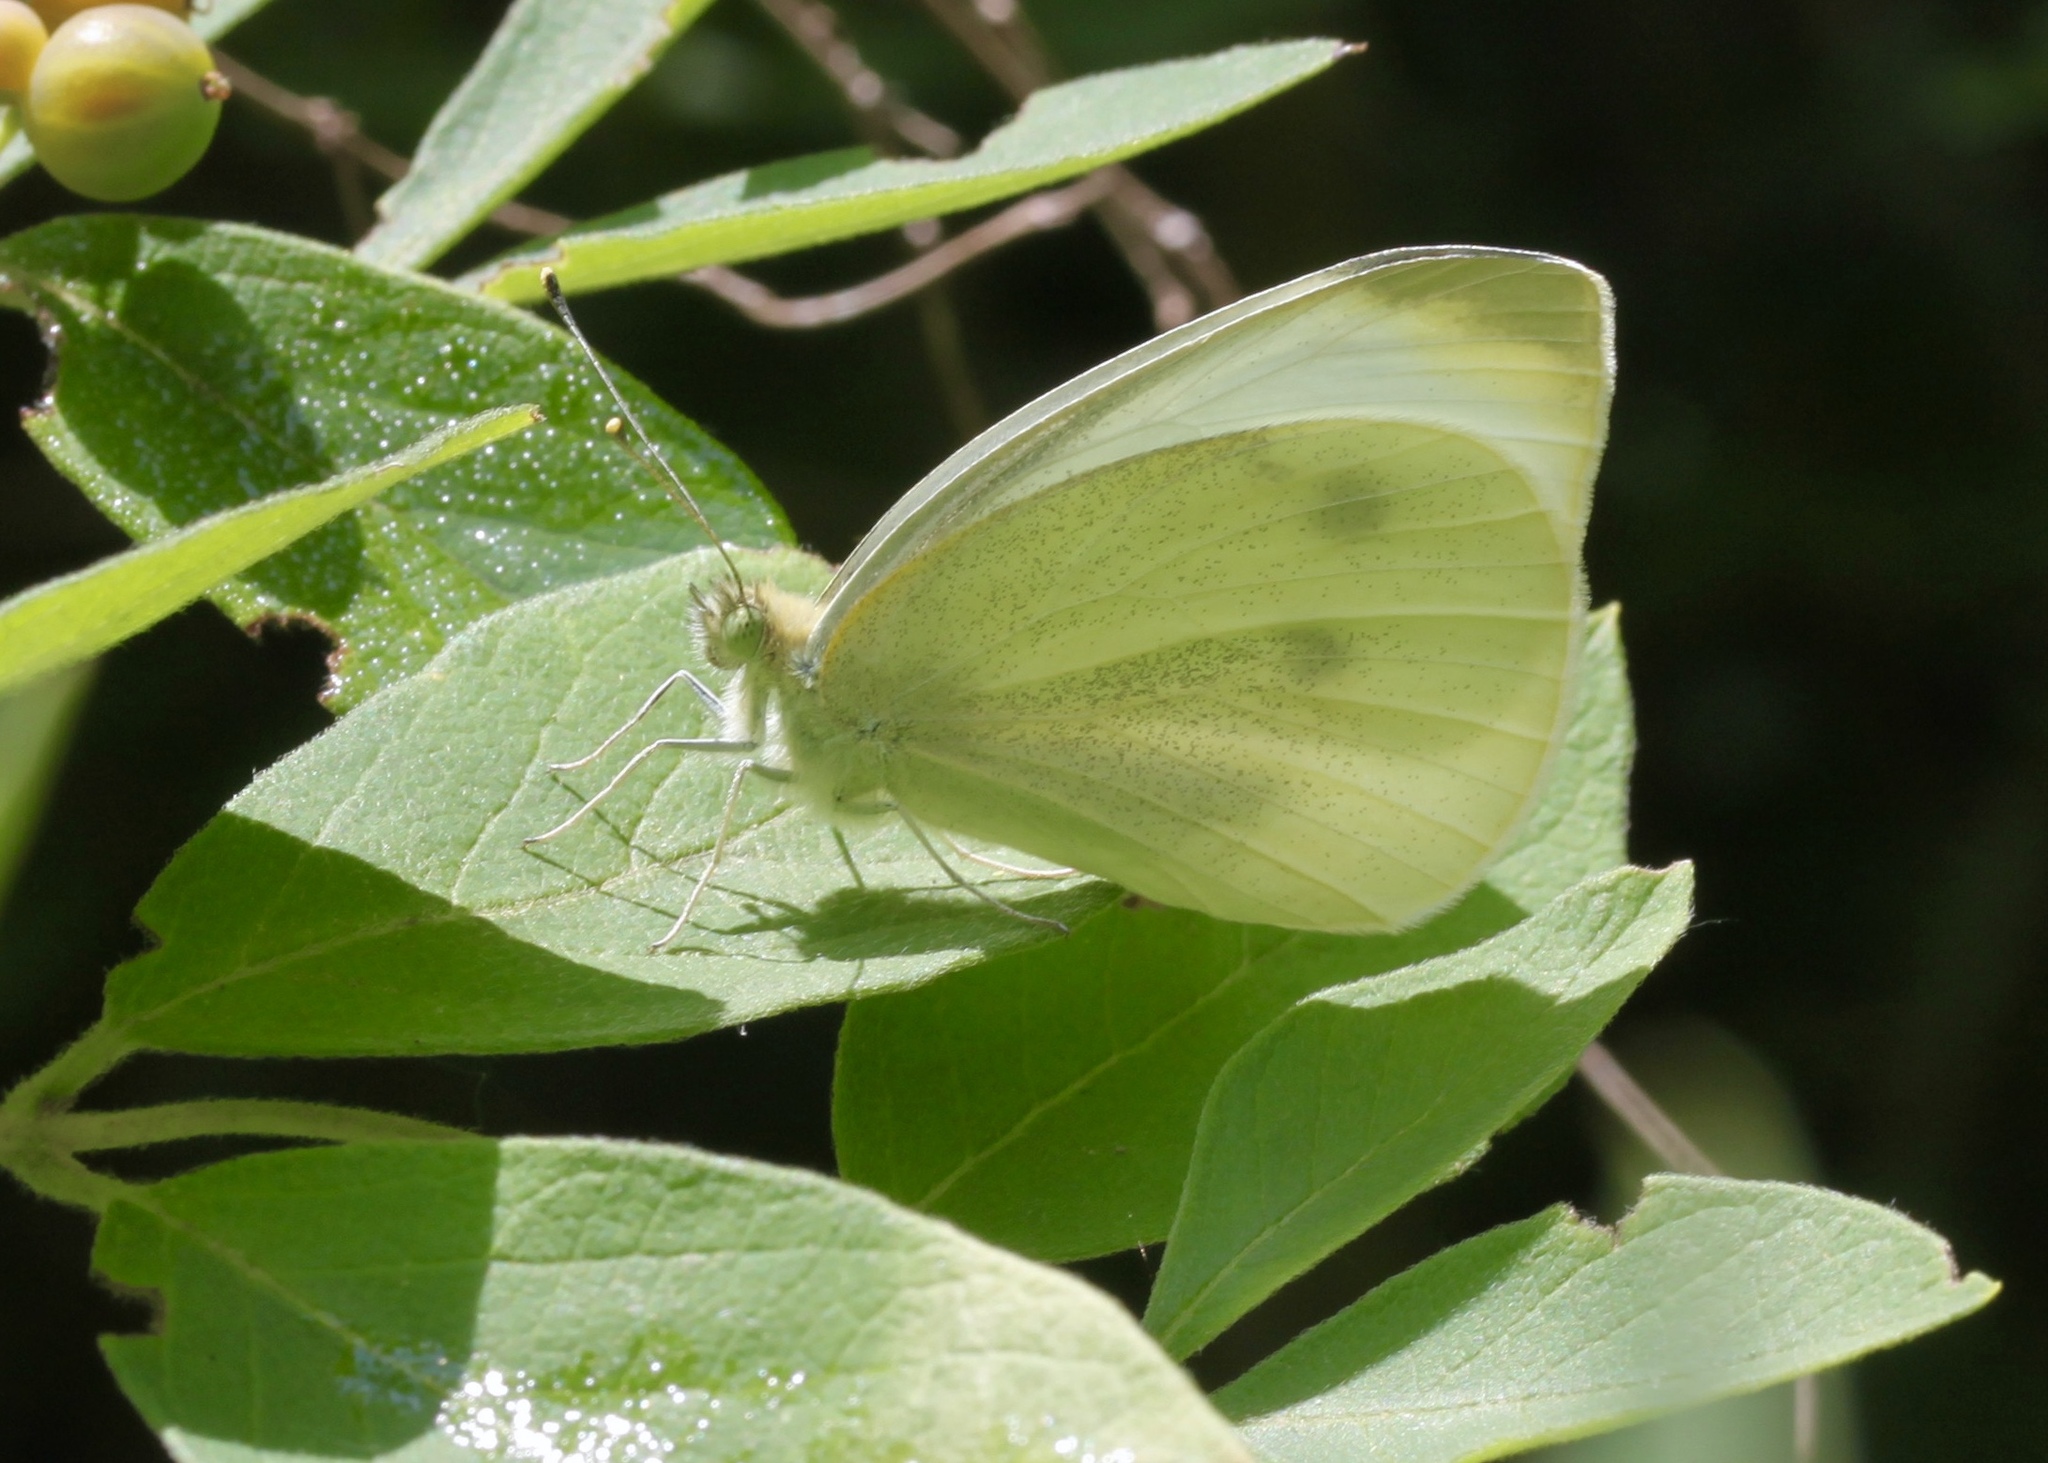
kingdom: Animalia
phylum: Arthropoda
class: Insecta
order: Lepidoptera
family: Pieridae
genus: Pieris
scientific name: Pieris rapae
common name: Small white
